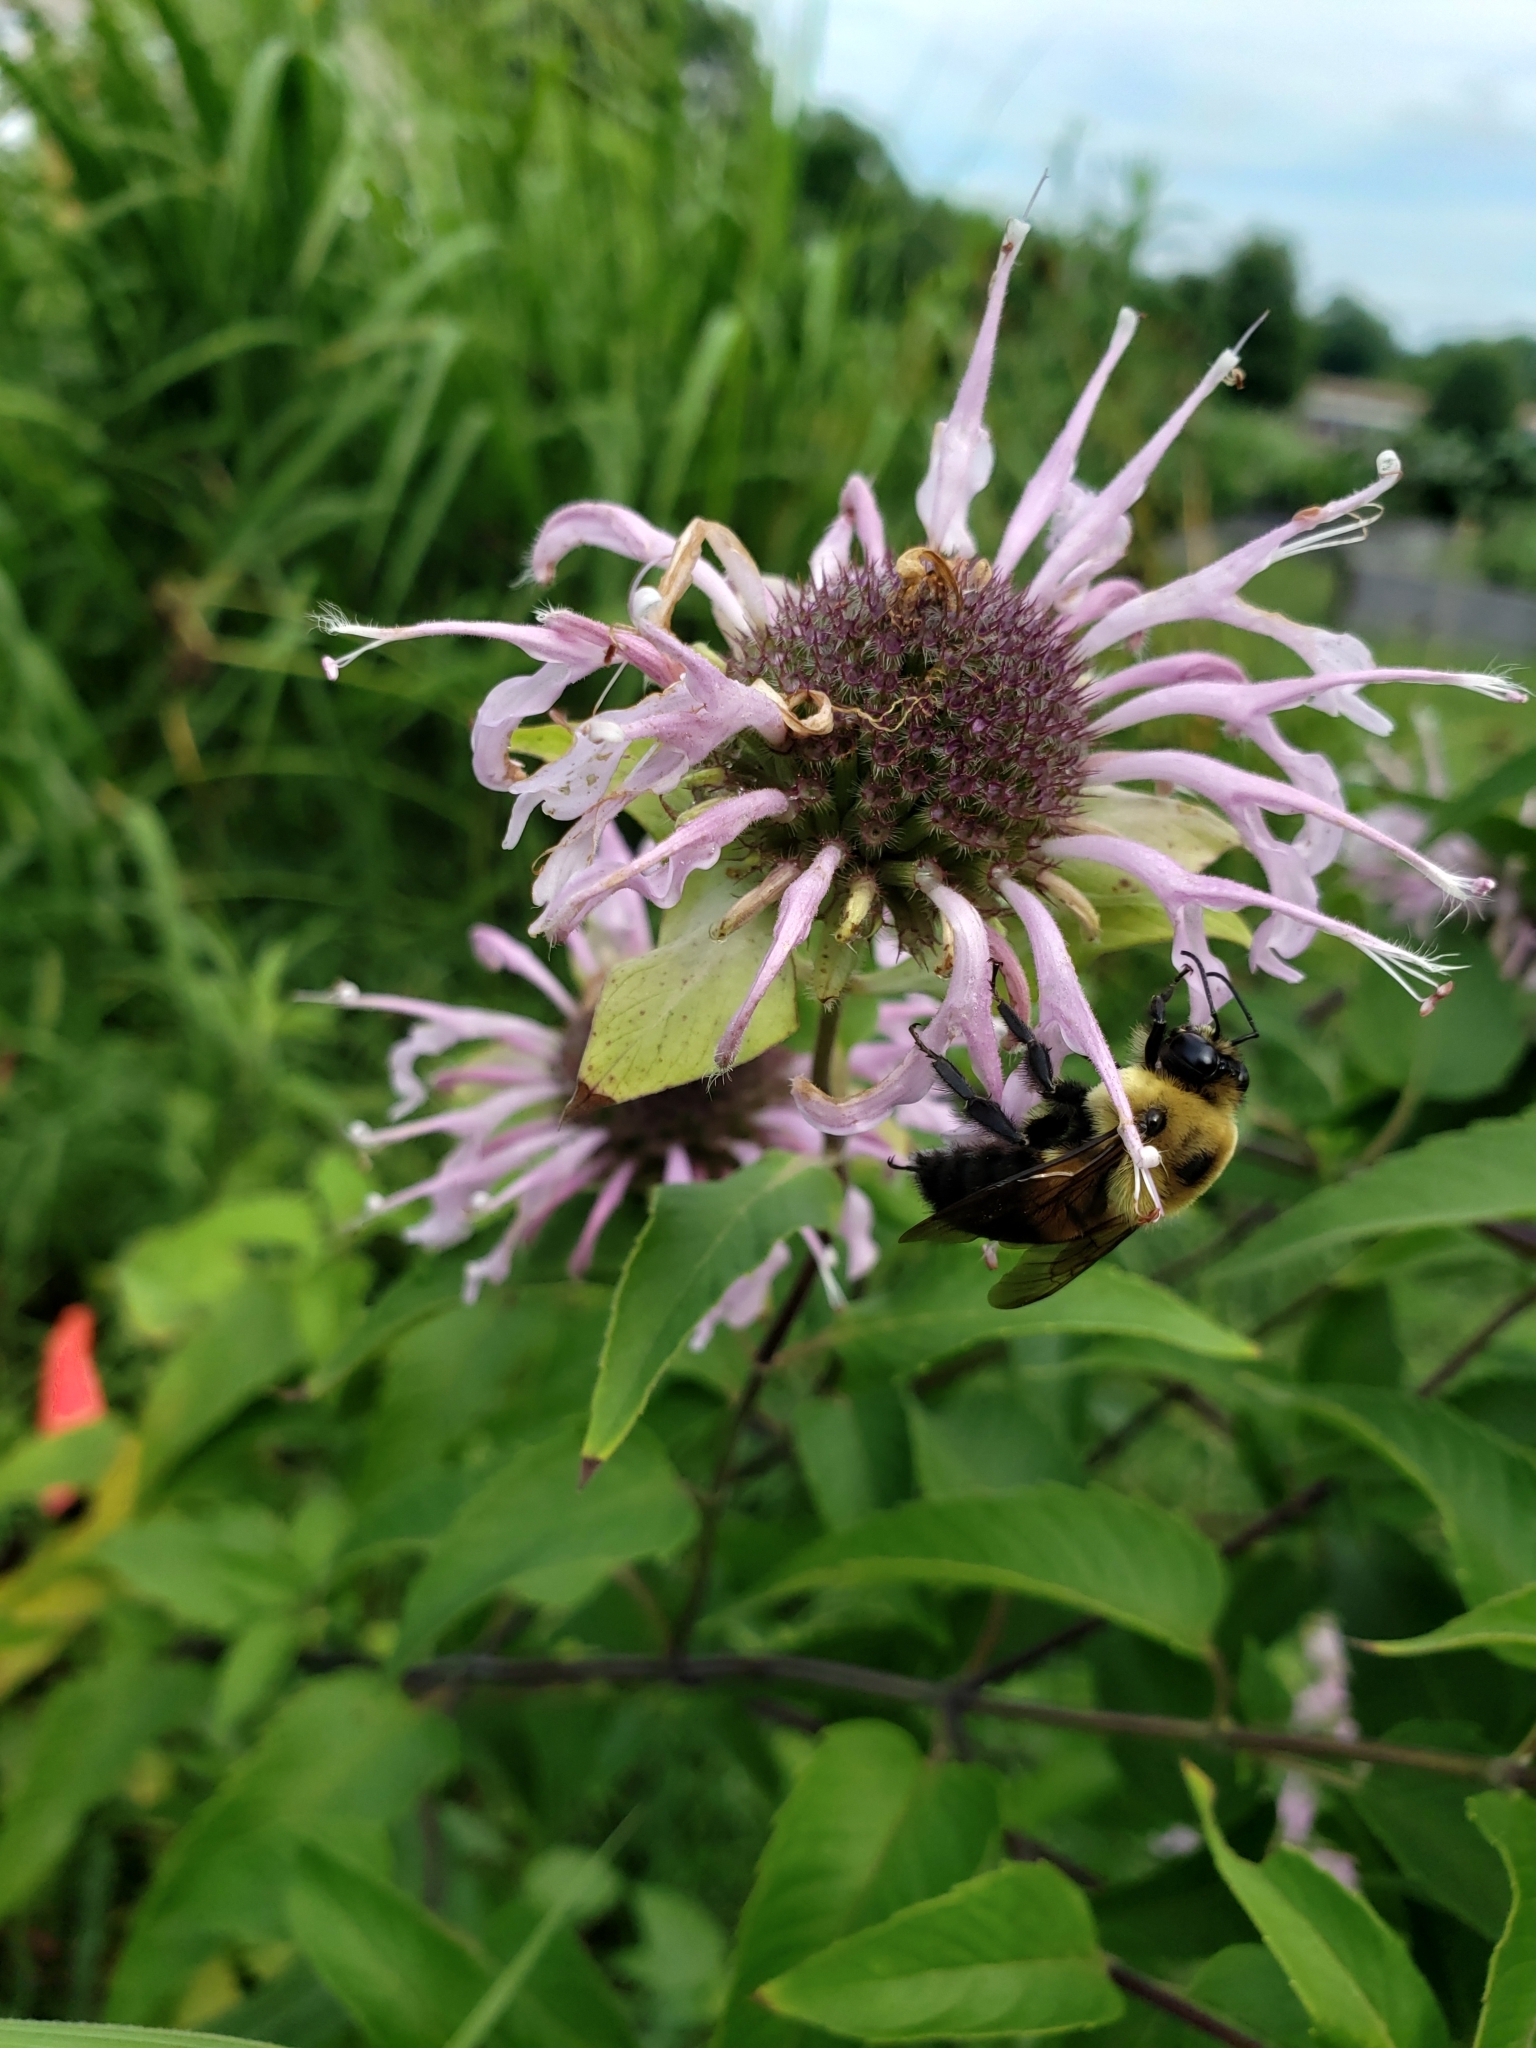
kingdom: Animalia
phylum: Arthropoda
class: Insecta
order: Hymenoptera
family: Apidae
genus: Bombus
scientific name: Bombus griseocollis
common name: Brown-belted bumble bee
